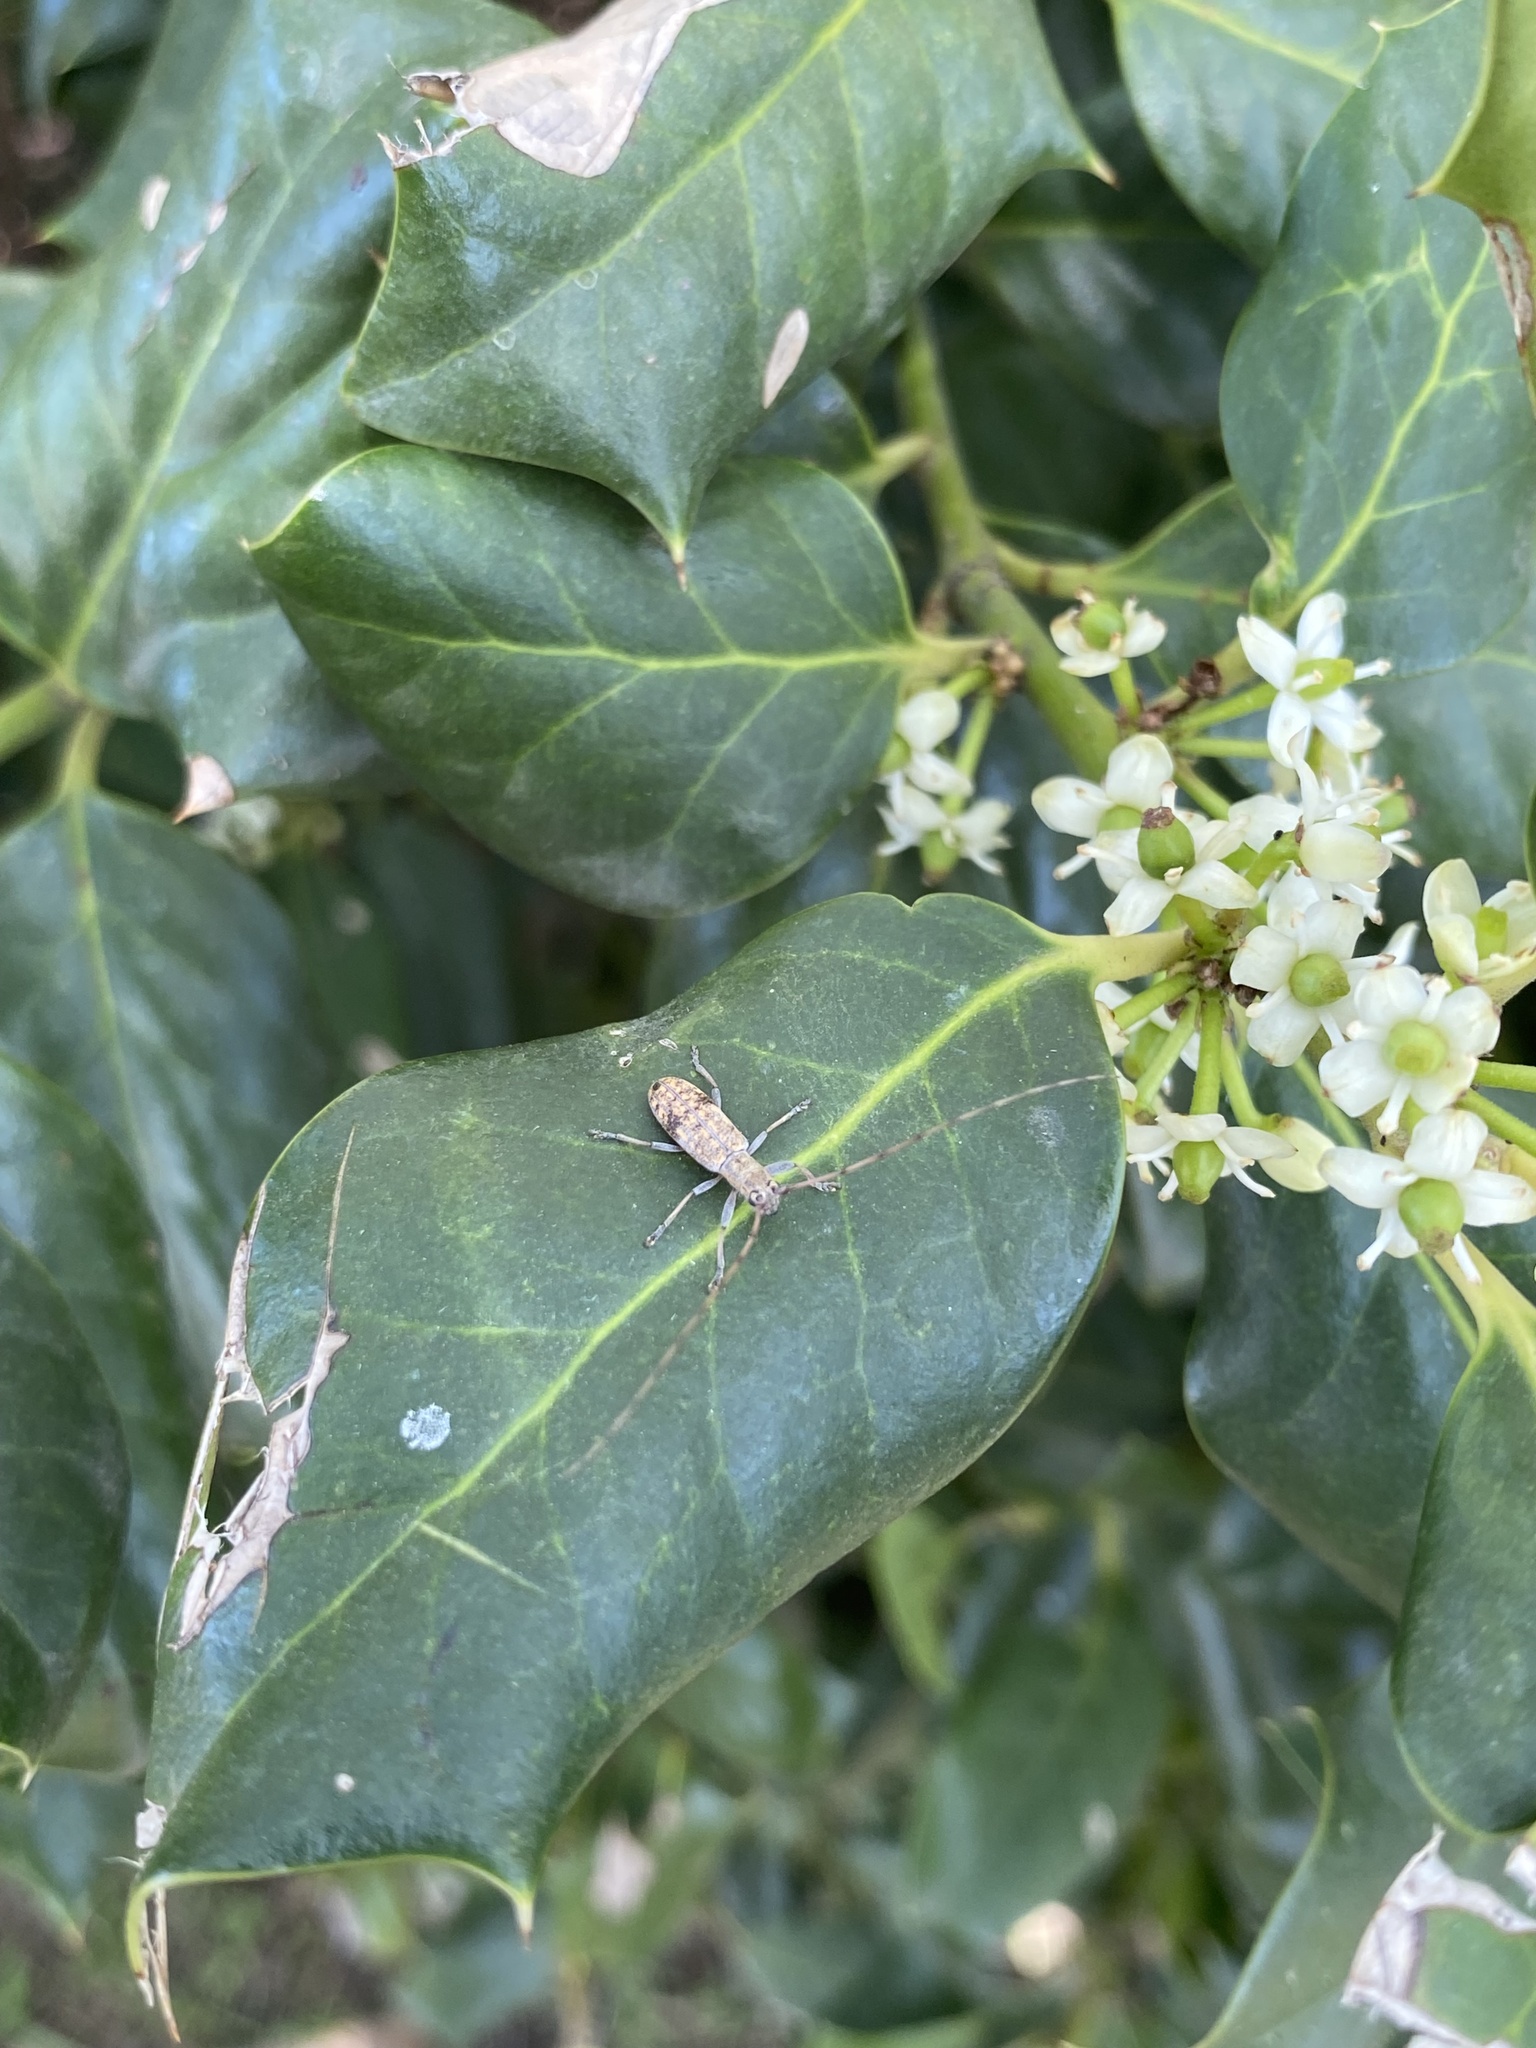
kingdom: Animalia
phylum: Arthropoda
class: Insecta
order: Coleoptera
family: Cerambycidae
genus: Dorcaschema
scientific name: Dorcaschema alternatum
